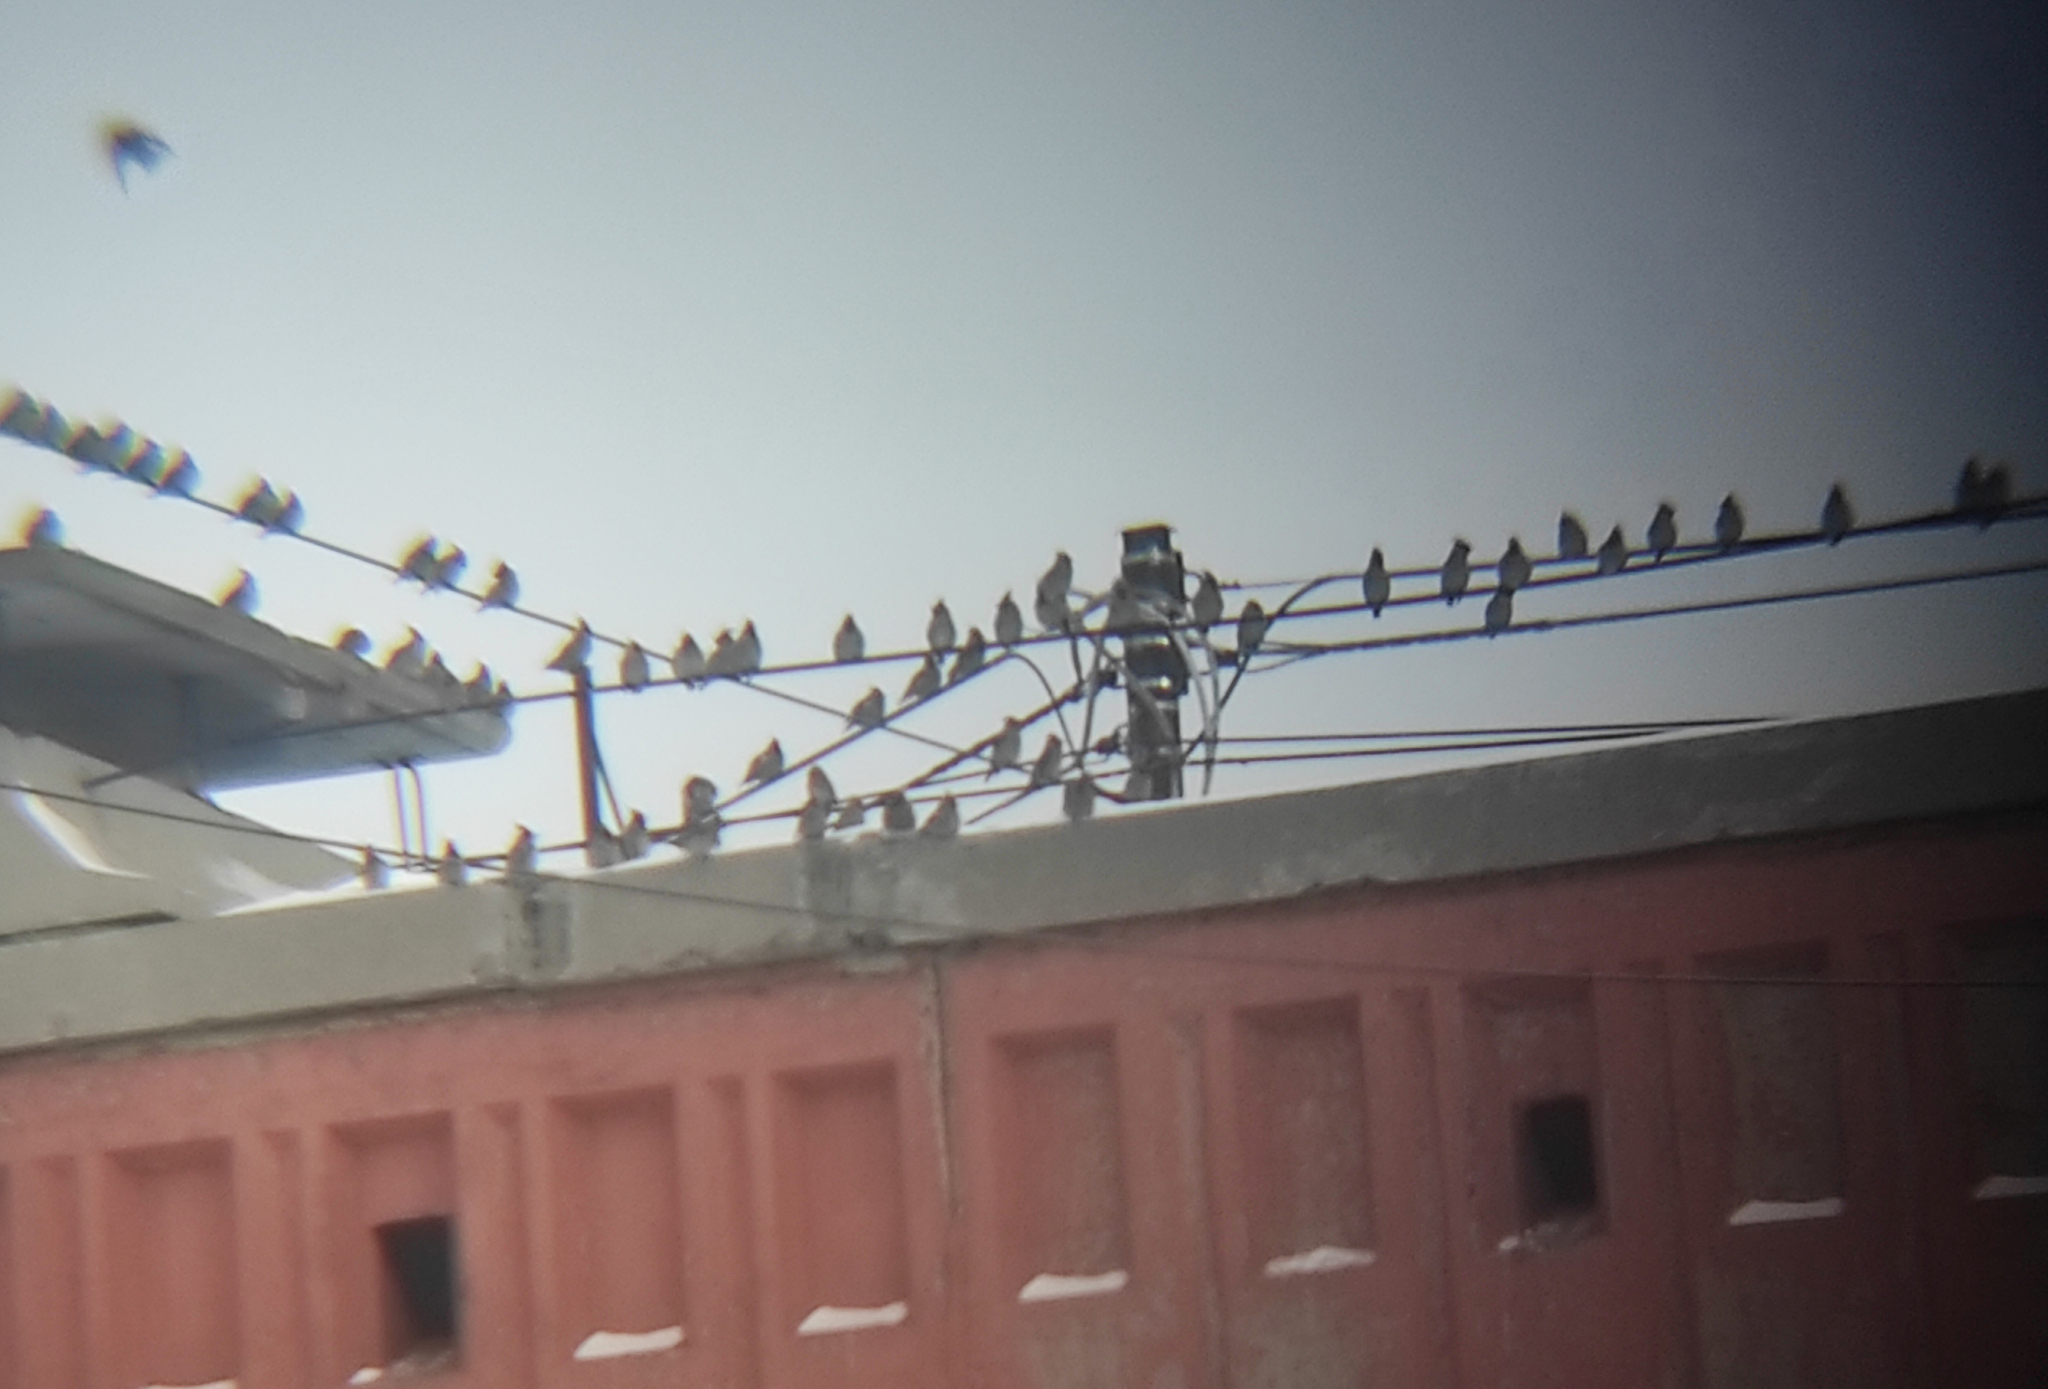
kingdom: Animalia
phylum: Chordata
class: Aves
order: Passeriformes
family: Bombycillidae
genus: Bombycilla
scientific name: Bombycilla garrulus
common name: Bohemian waxwing
